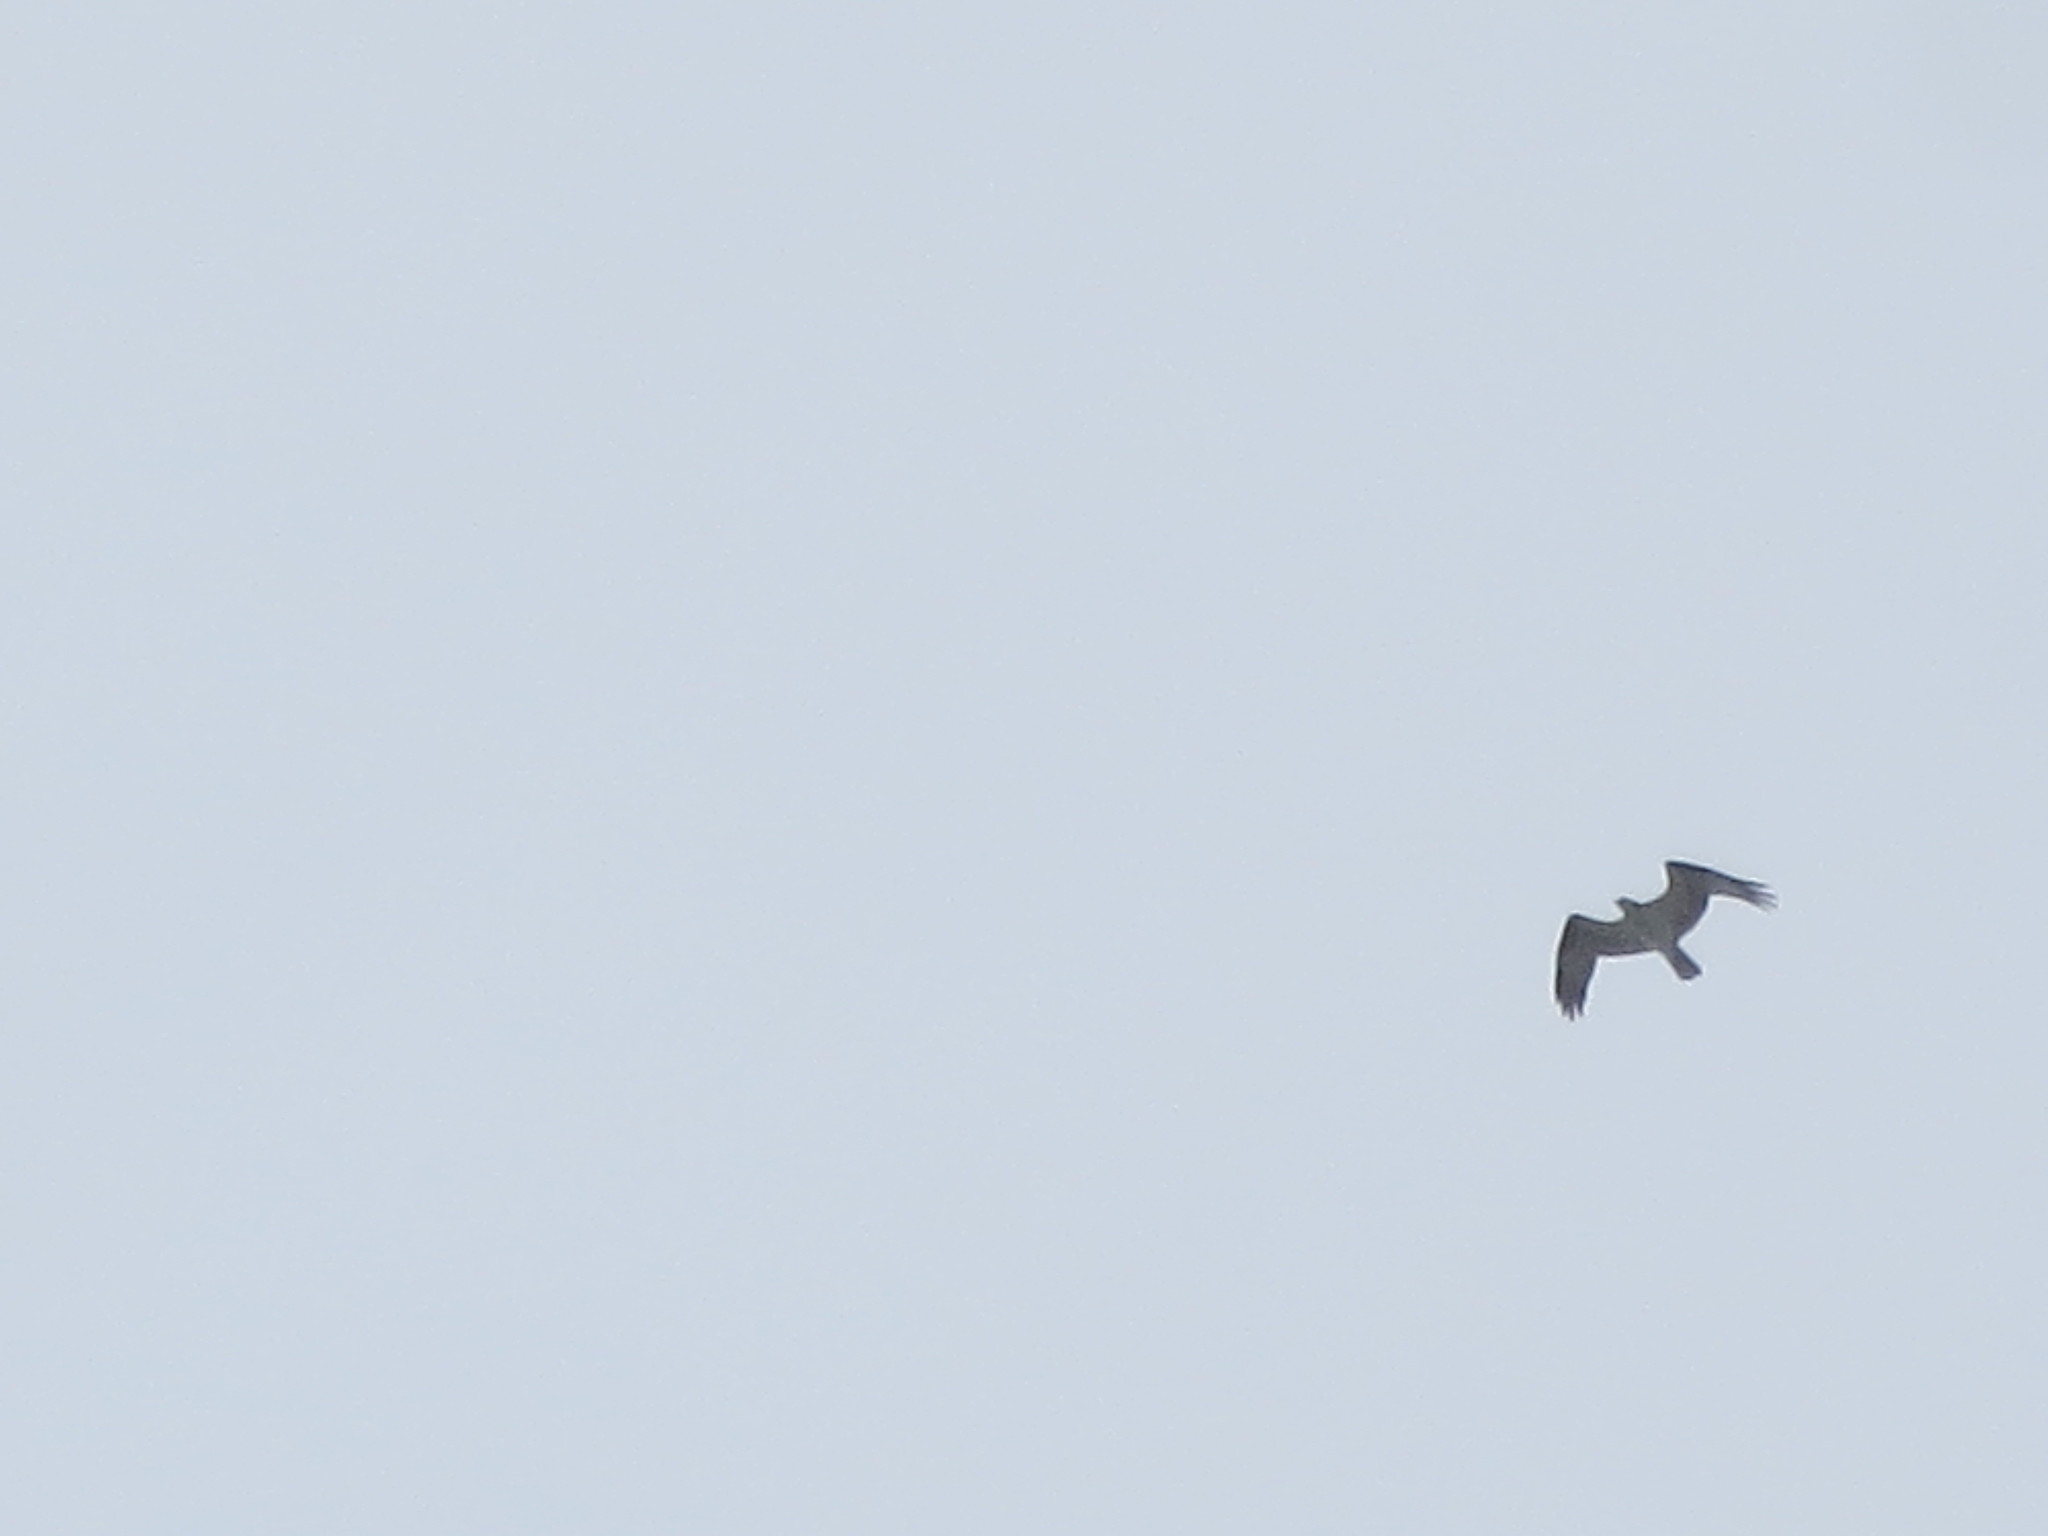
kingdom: Animalia
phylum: Chordata
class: Aves
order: Accipitriformes
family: Pandionidae
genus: Pandion
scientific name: Pandion haliaetus
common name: Osprey
